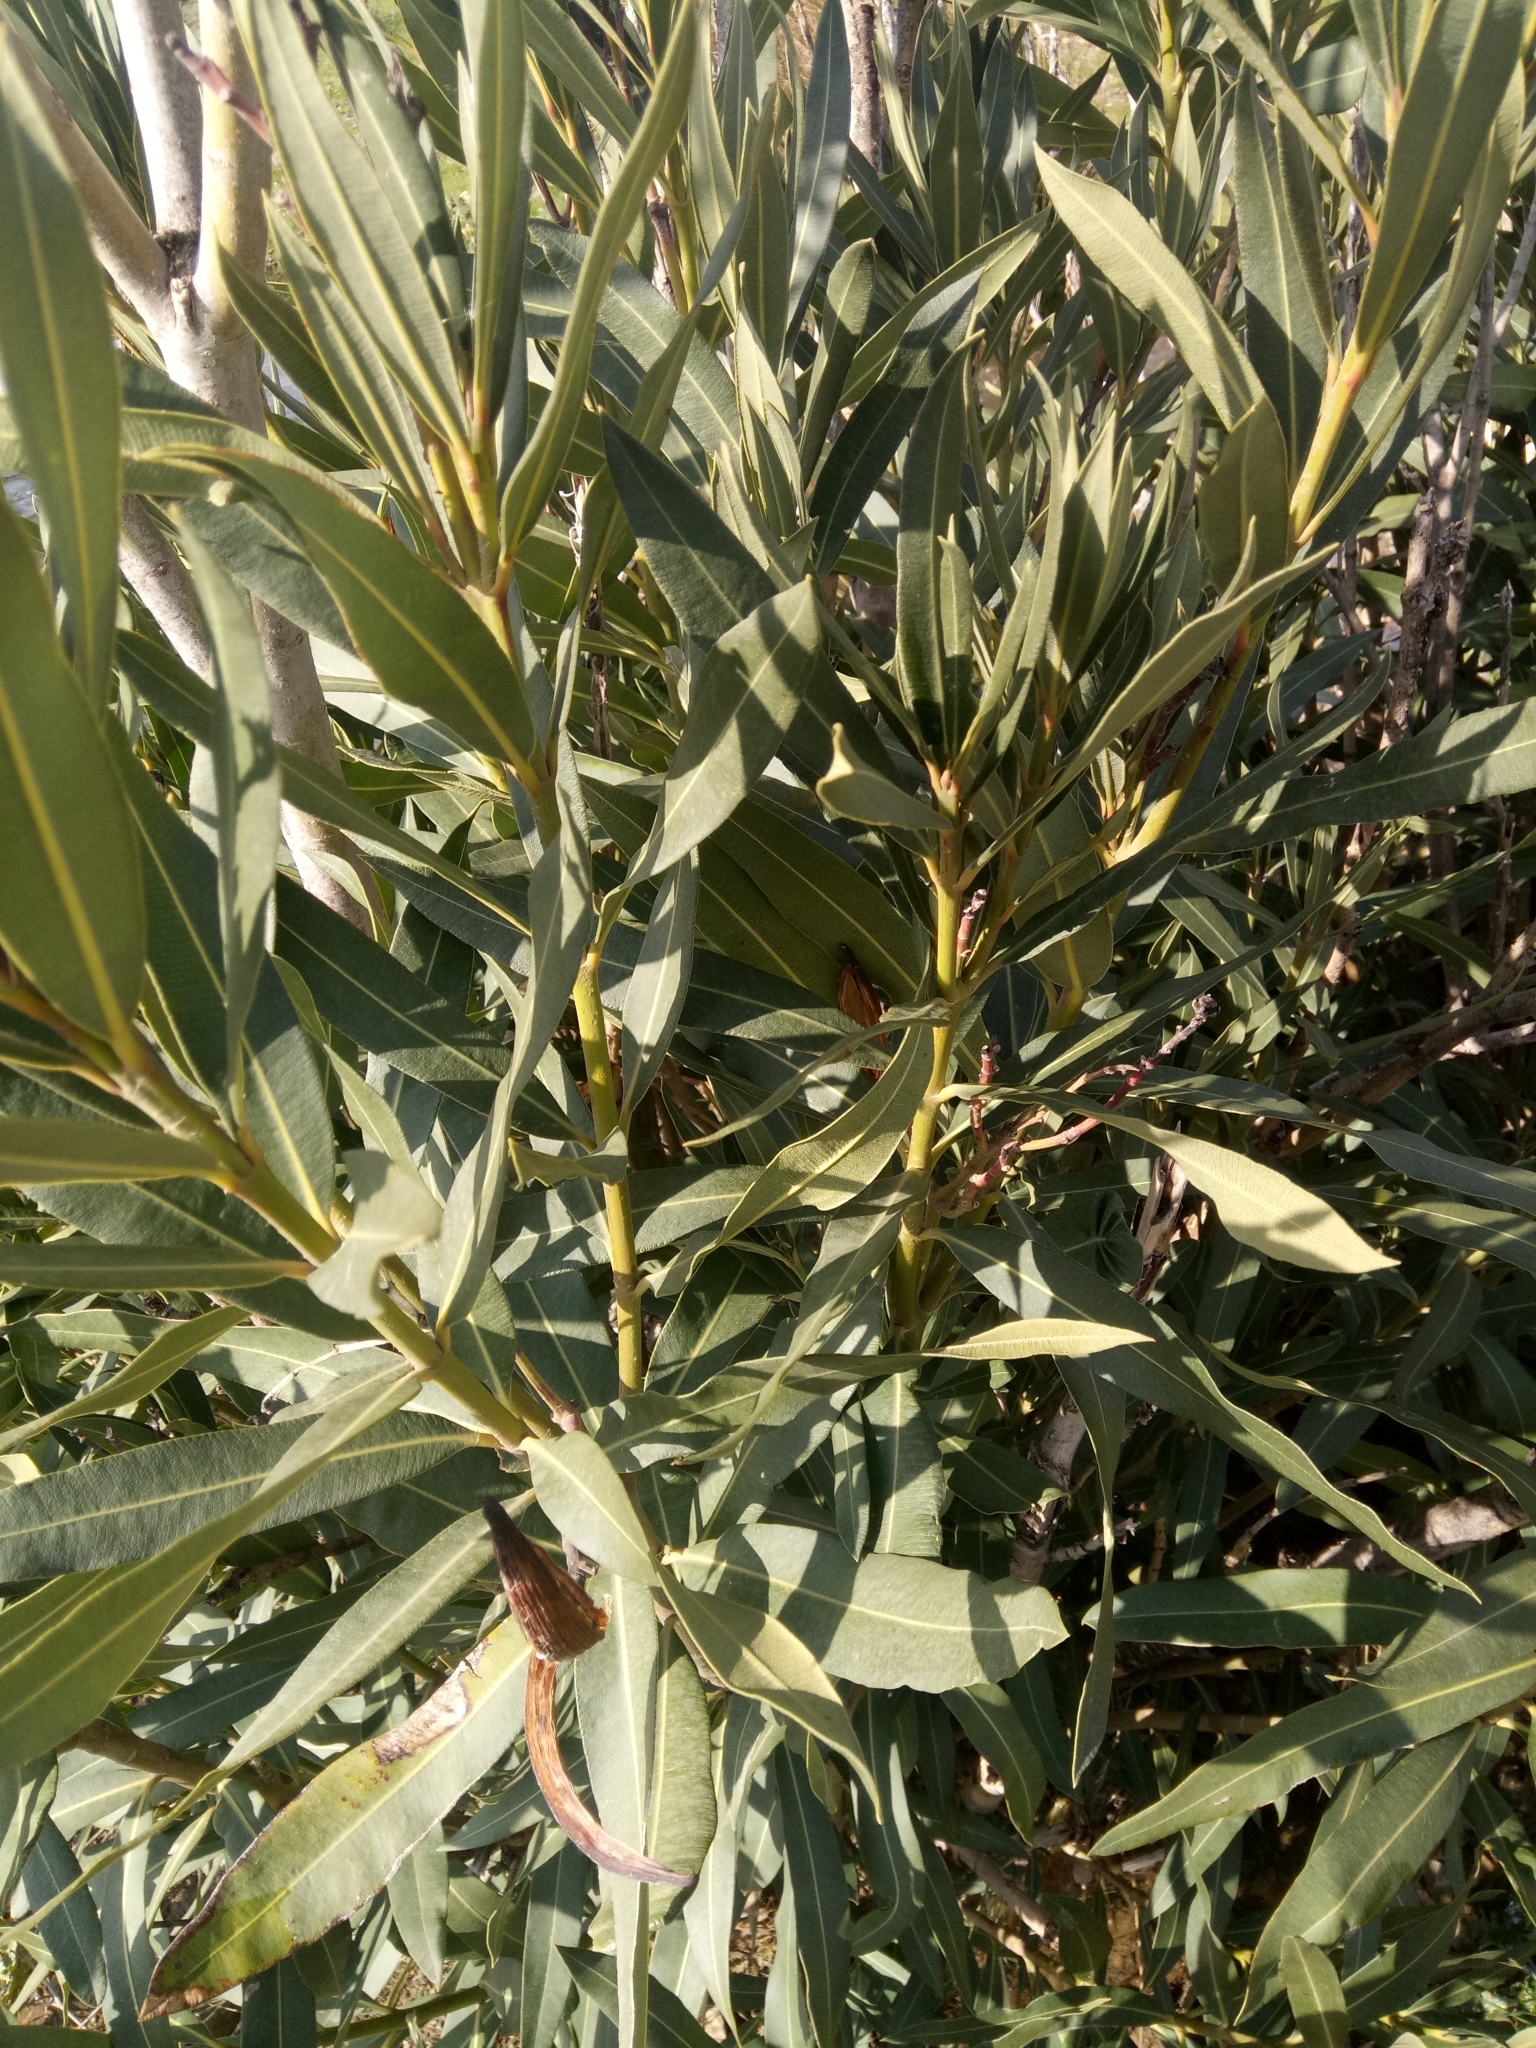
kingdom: Plantae
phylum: Tracheophyta
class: Magnoliopsida
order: Gentianales
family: Apocynaceae
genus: Nerium
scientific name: Nerium oleander
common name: Oleander
